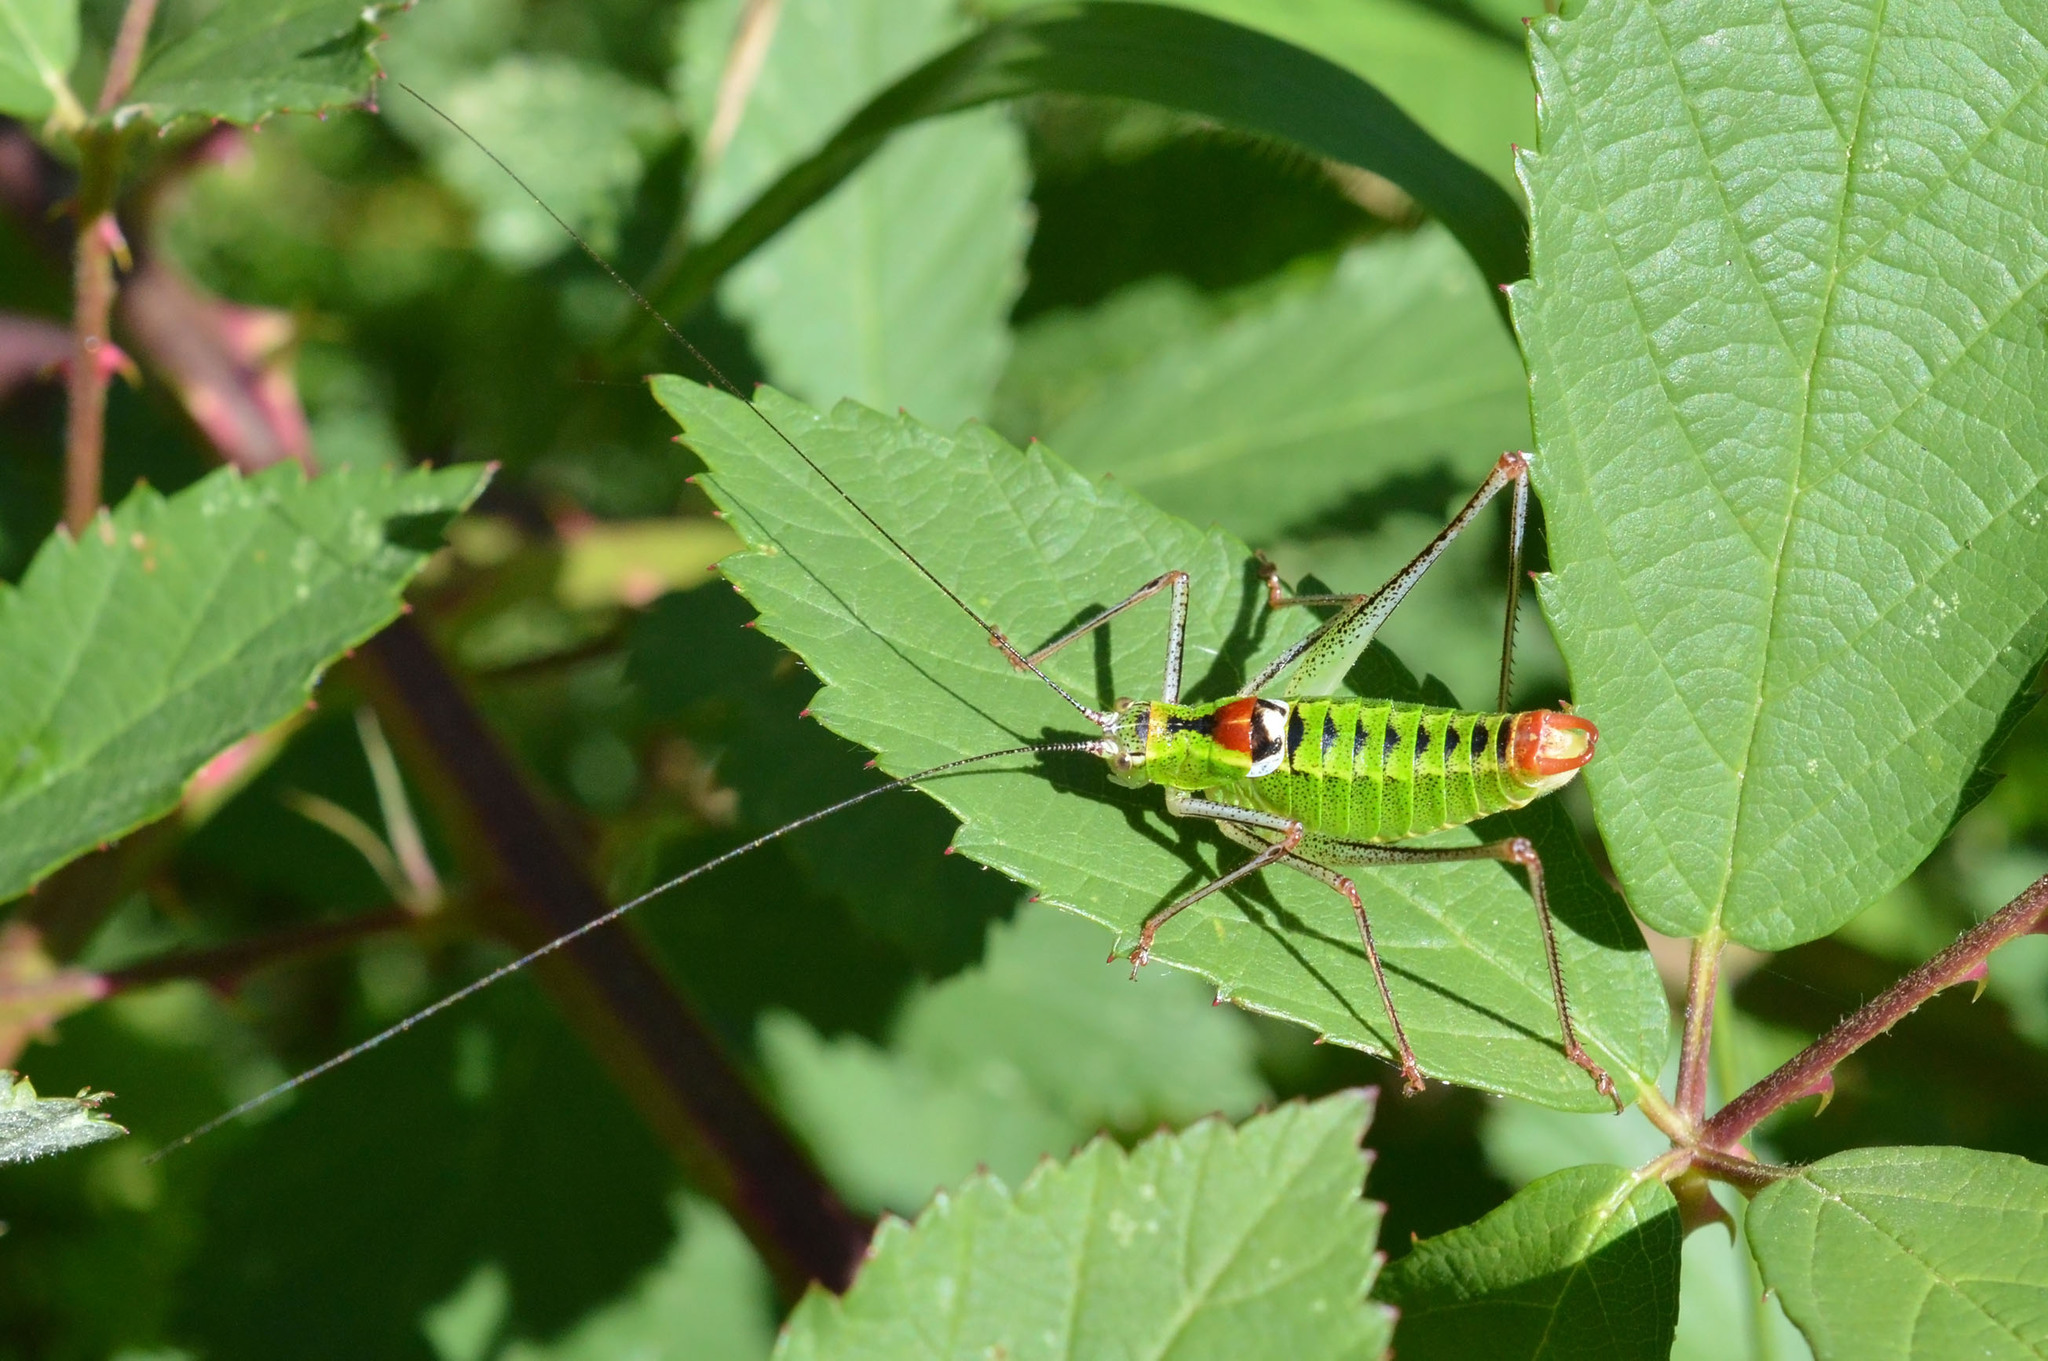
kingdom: Animalia
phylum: Arthropoda
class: Insecta
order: Orthoptera
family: Tettigoniidae
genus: Poecilimon
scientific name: Poecilimon thoracicus
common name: Bellied bright bush-cricket
